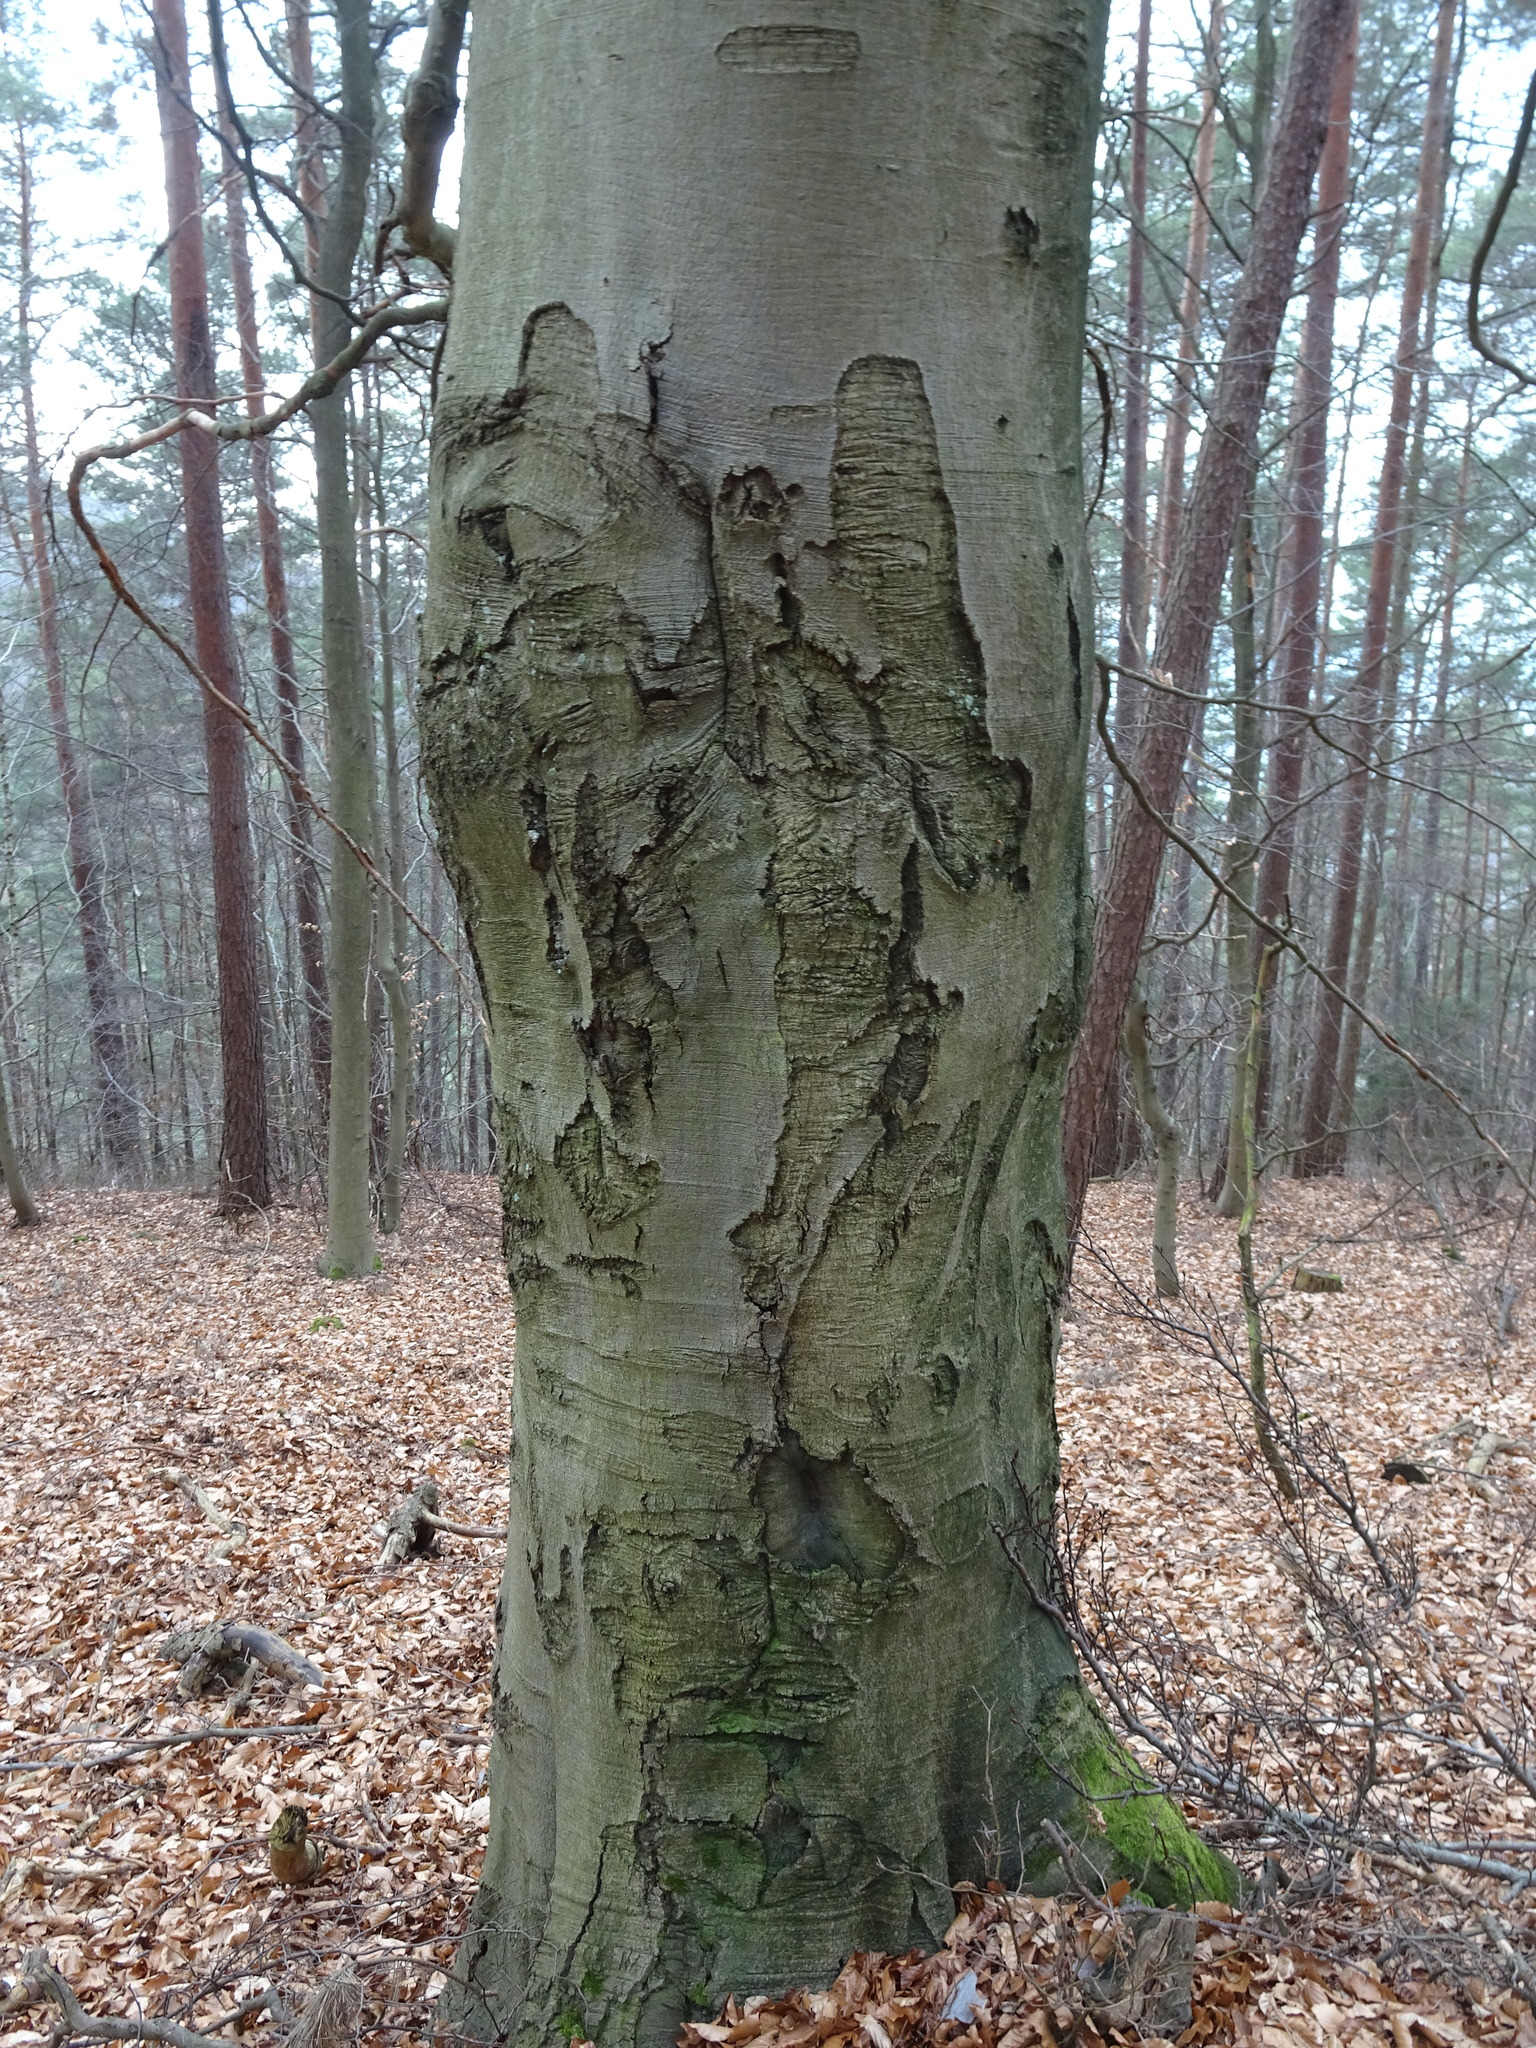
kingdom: Plantae
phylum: Tracheophyta
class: Magnoliopsida
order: Fagales
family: Fagaceae
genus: Fagus
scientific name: Fagus sylvatica
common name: Beech
